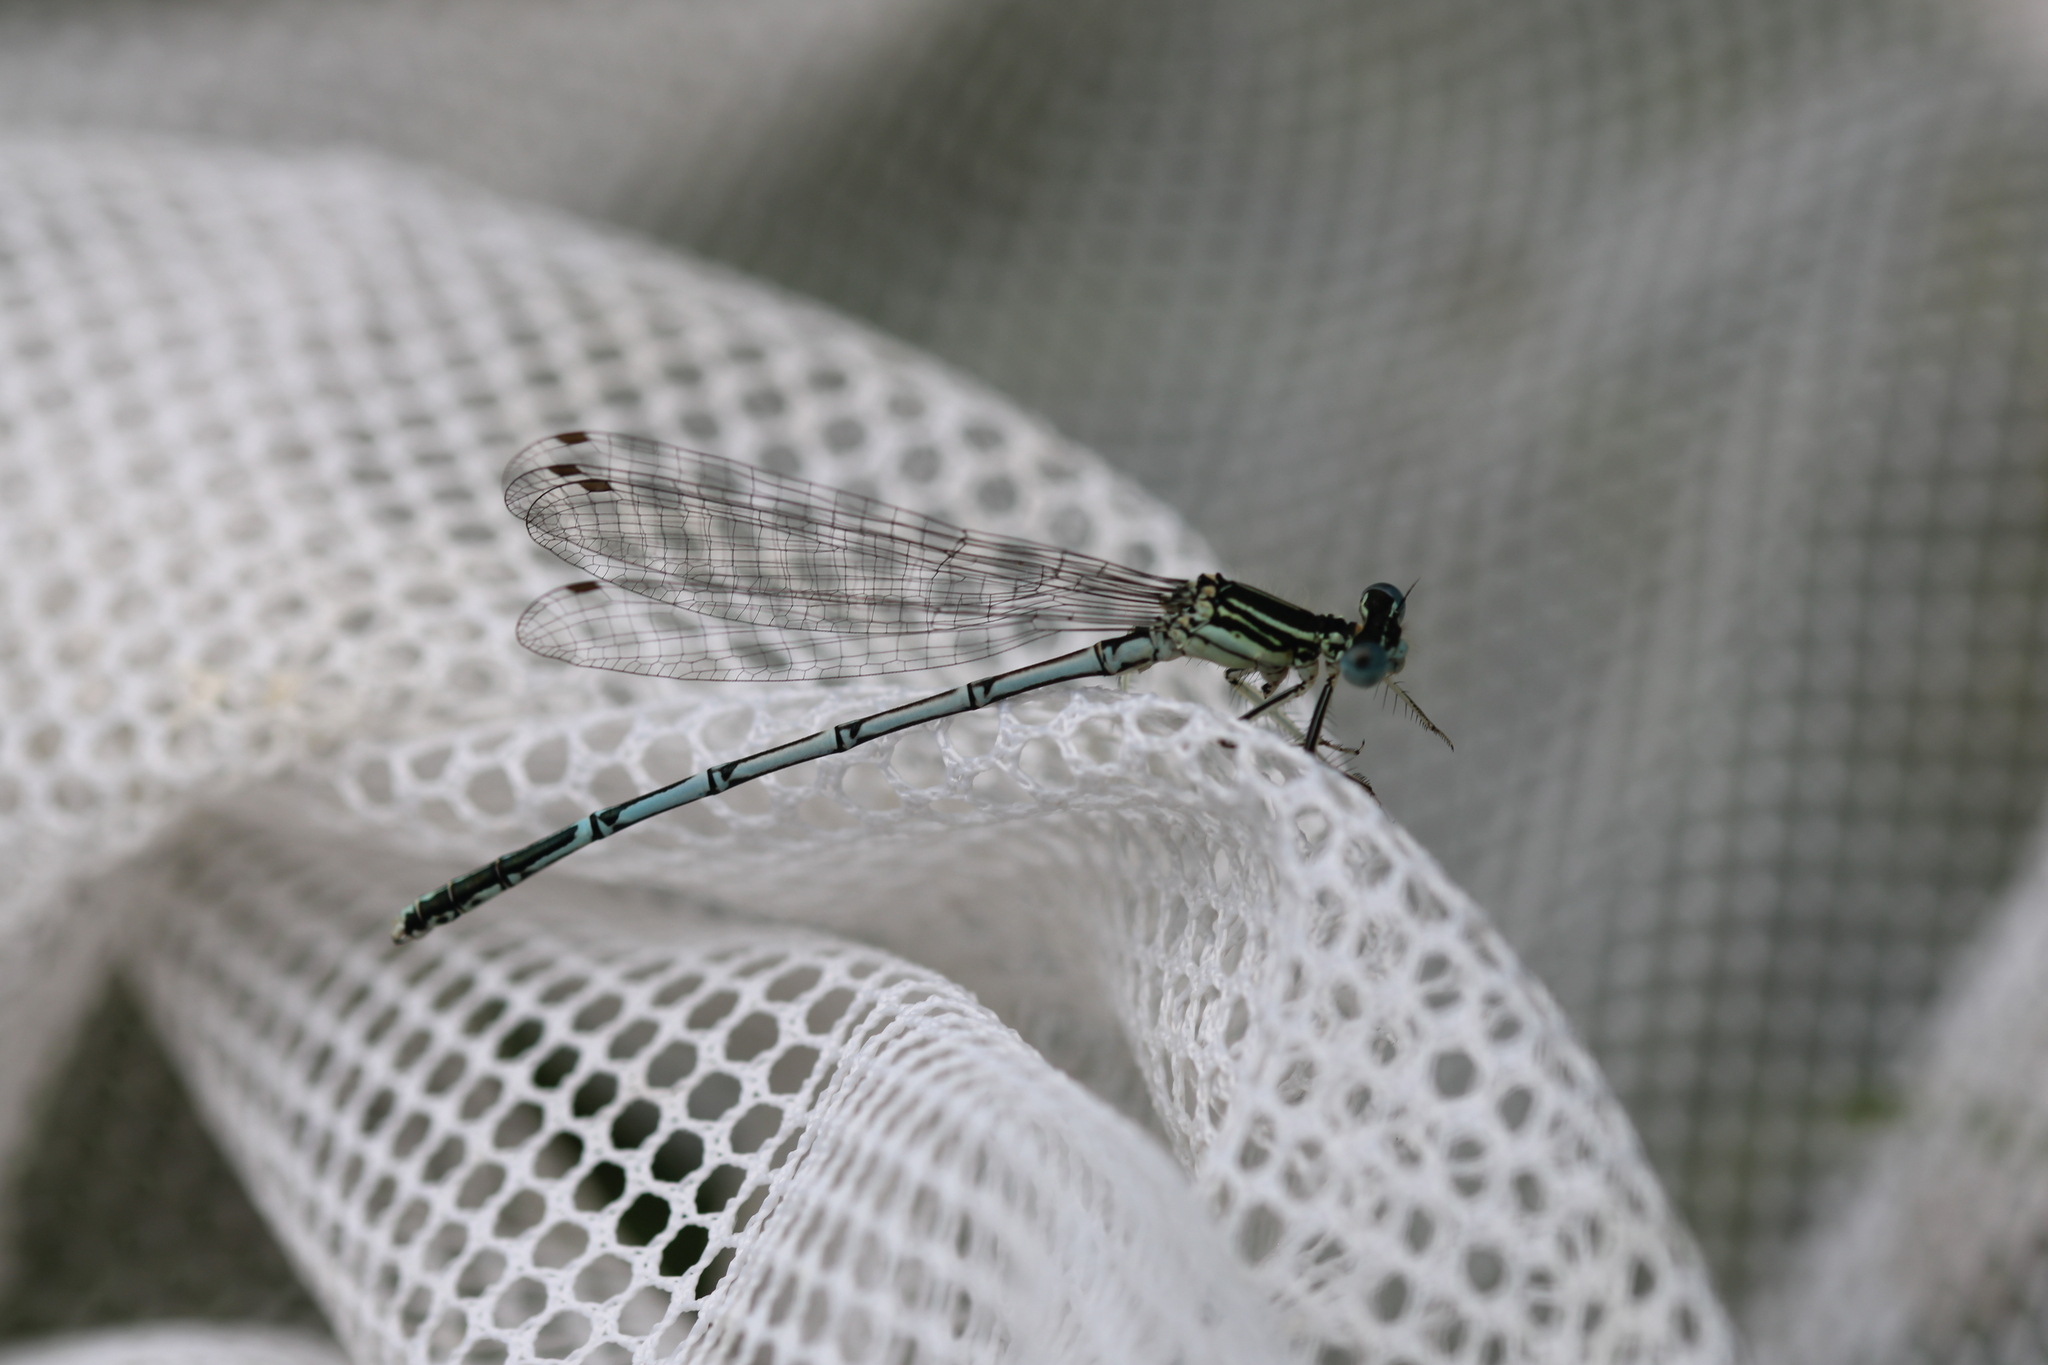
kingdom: Animalia
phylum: Arthropoda
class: Insecta
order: Odonata
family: Platycnemididae
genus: Platycnemis
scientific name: Platycnemis pennipes
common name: White-legged damselfly
